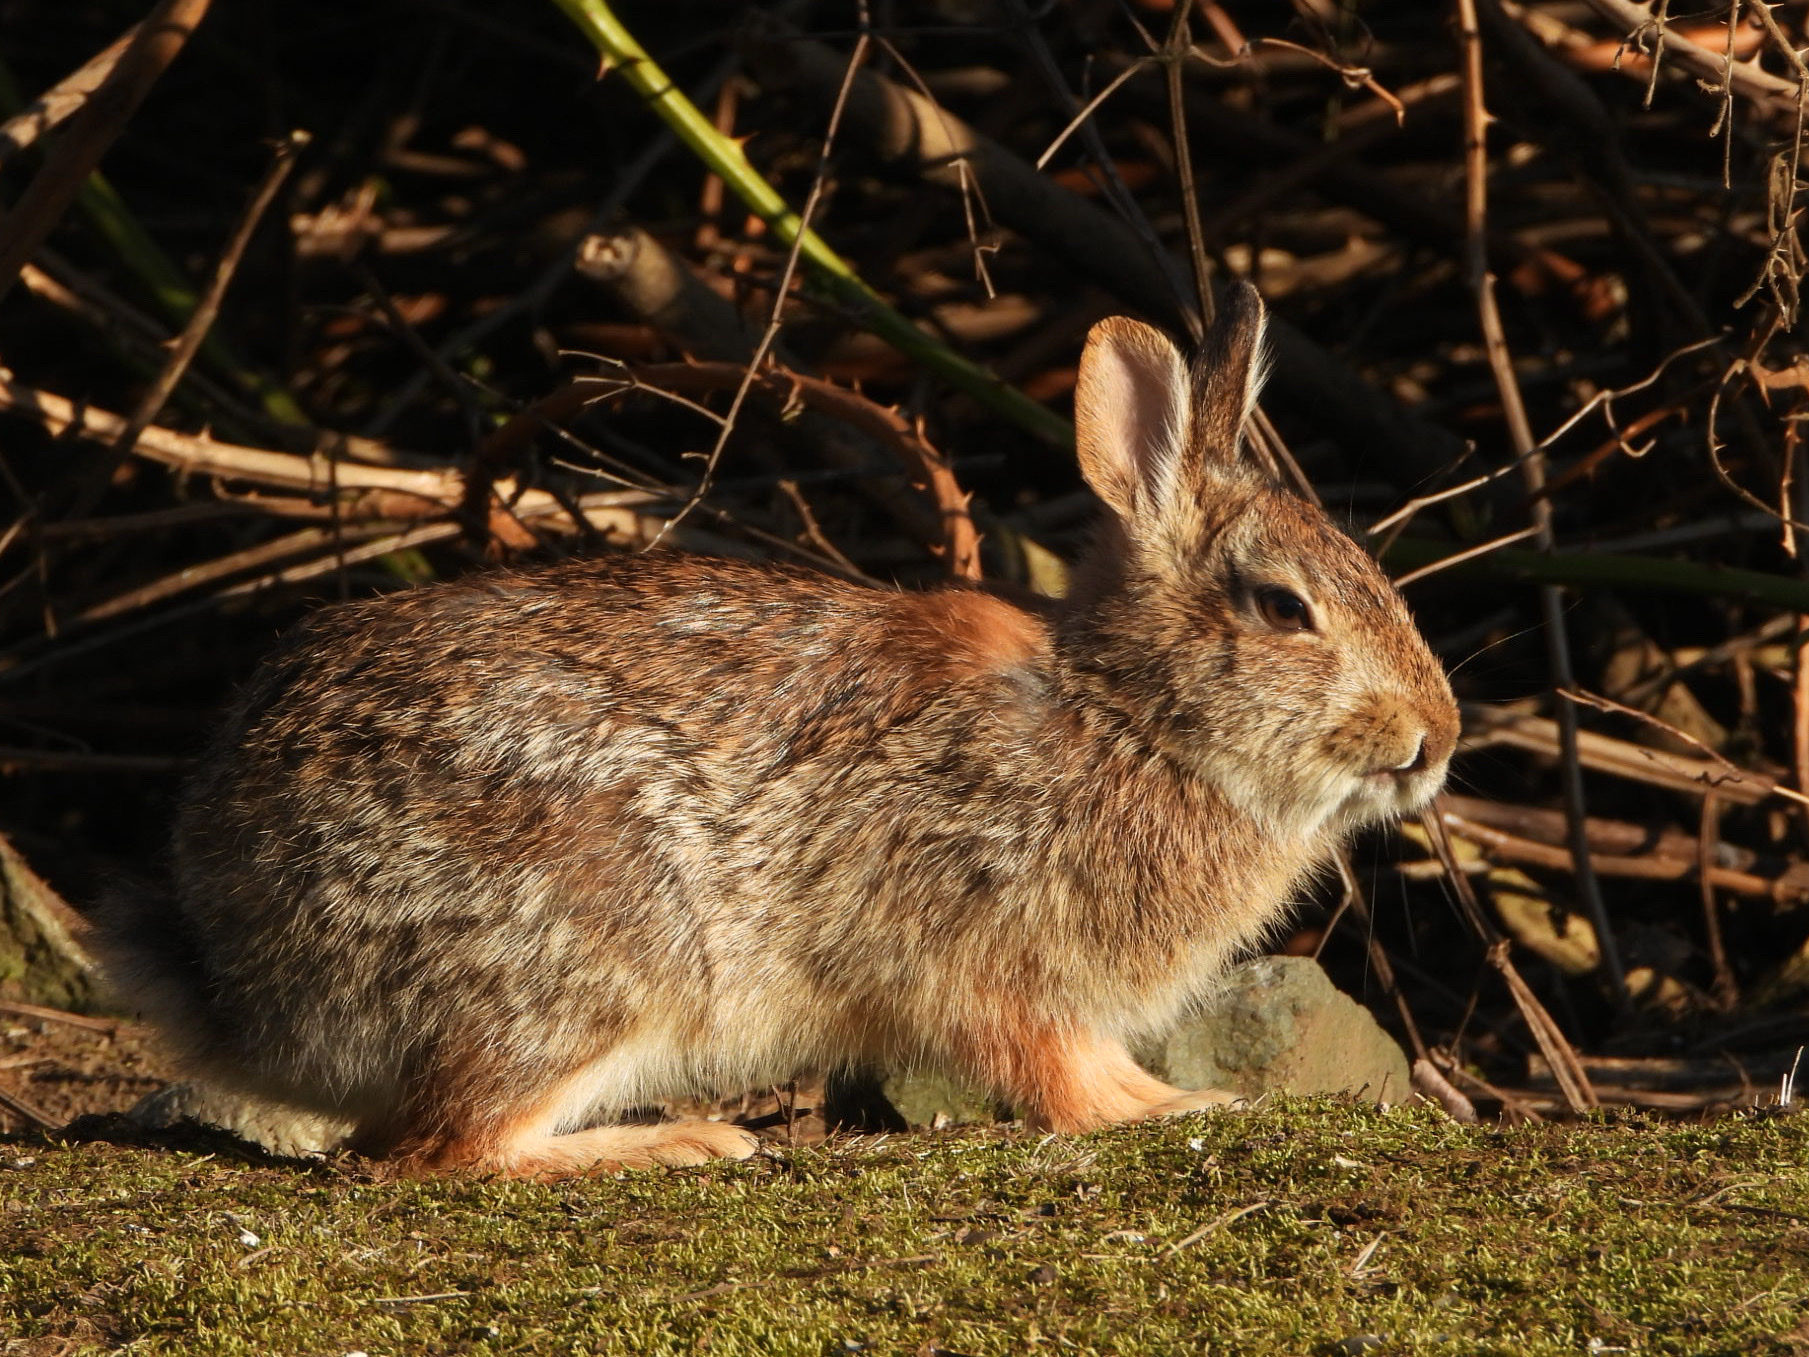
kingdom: Animalia
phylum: Chordata
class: Mammalia
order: Lagomorpha
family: Leporidae
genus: Sylvilagus
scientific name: Sylvilagus floridanus
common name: Eastern cottontail
